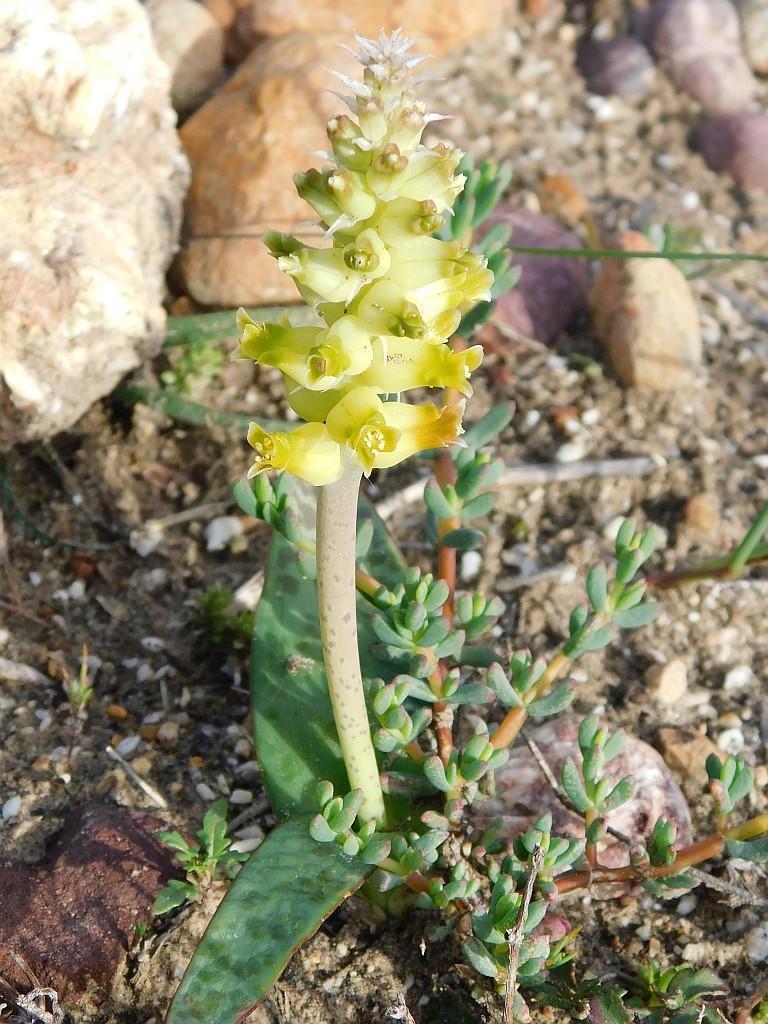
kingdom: Plantae
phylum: Tracheophyta
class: Liliopsida
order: Asparagales
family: Asparagaceae
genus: Lachenalia
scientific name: Lachenalia lutea
